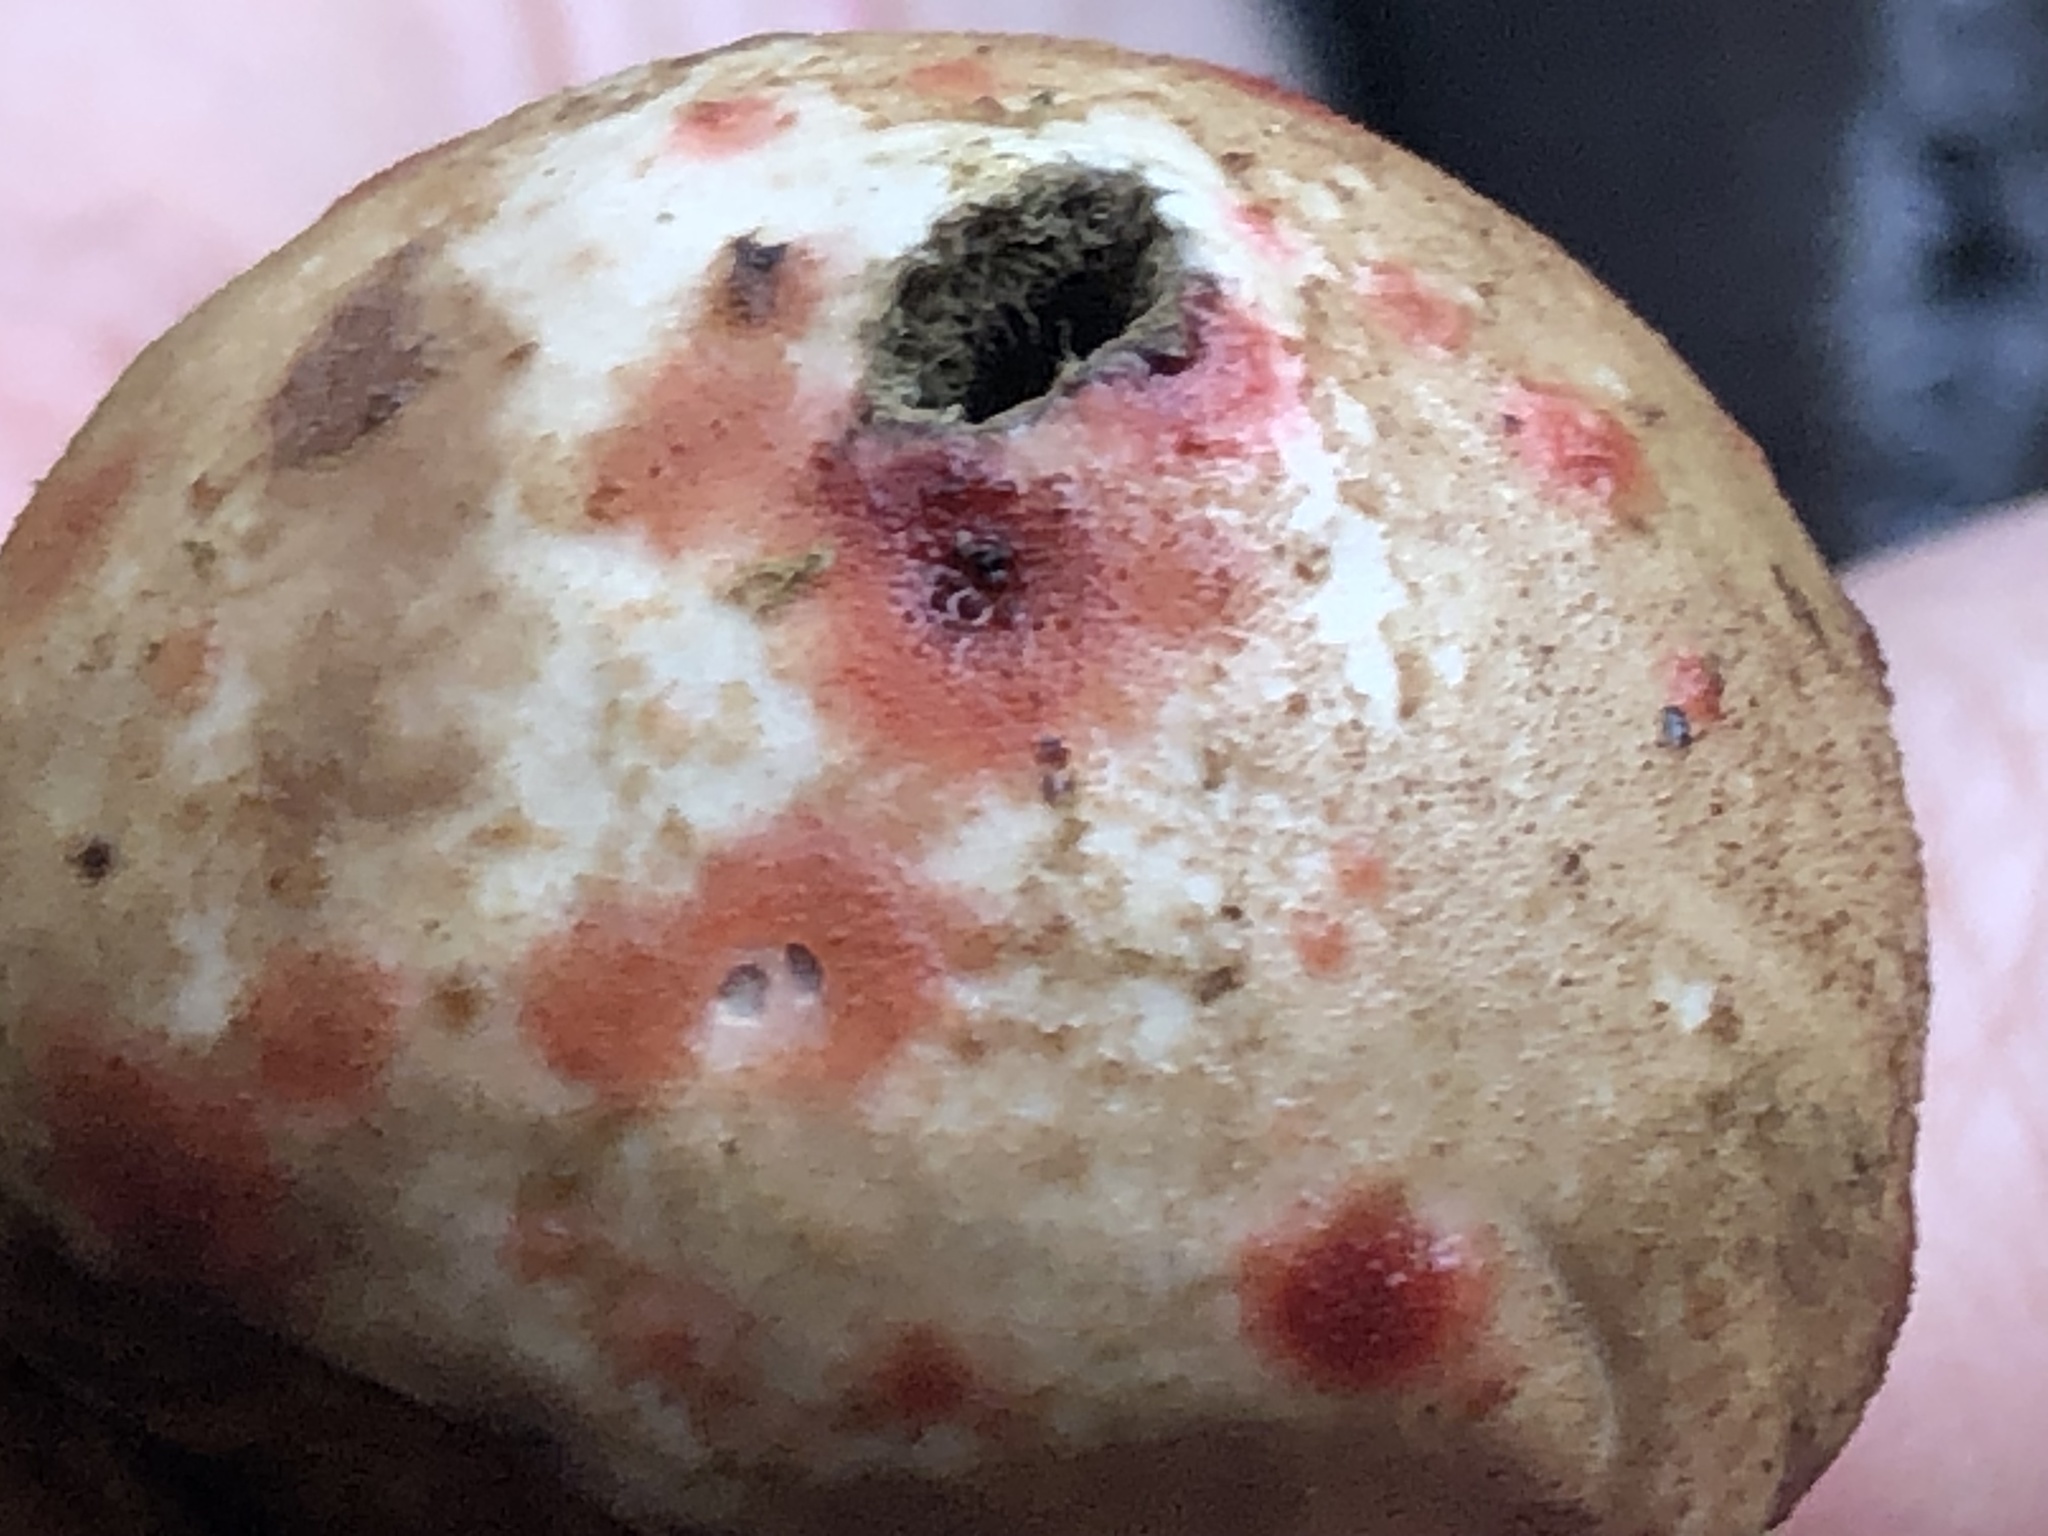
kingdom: Fungi
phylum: Ascomycota
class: Dothideomycetes
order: Pleosporales
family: Didymellaceae
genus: Epicoccum
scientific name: Epicoccum nigrum
